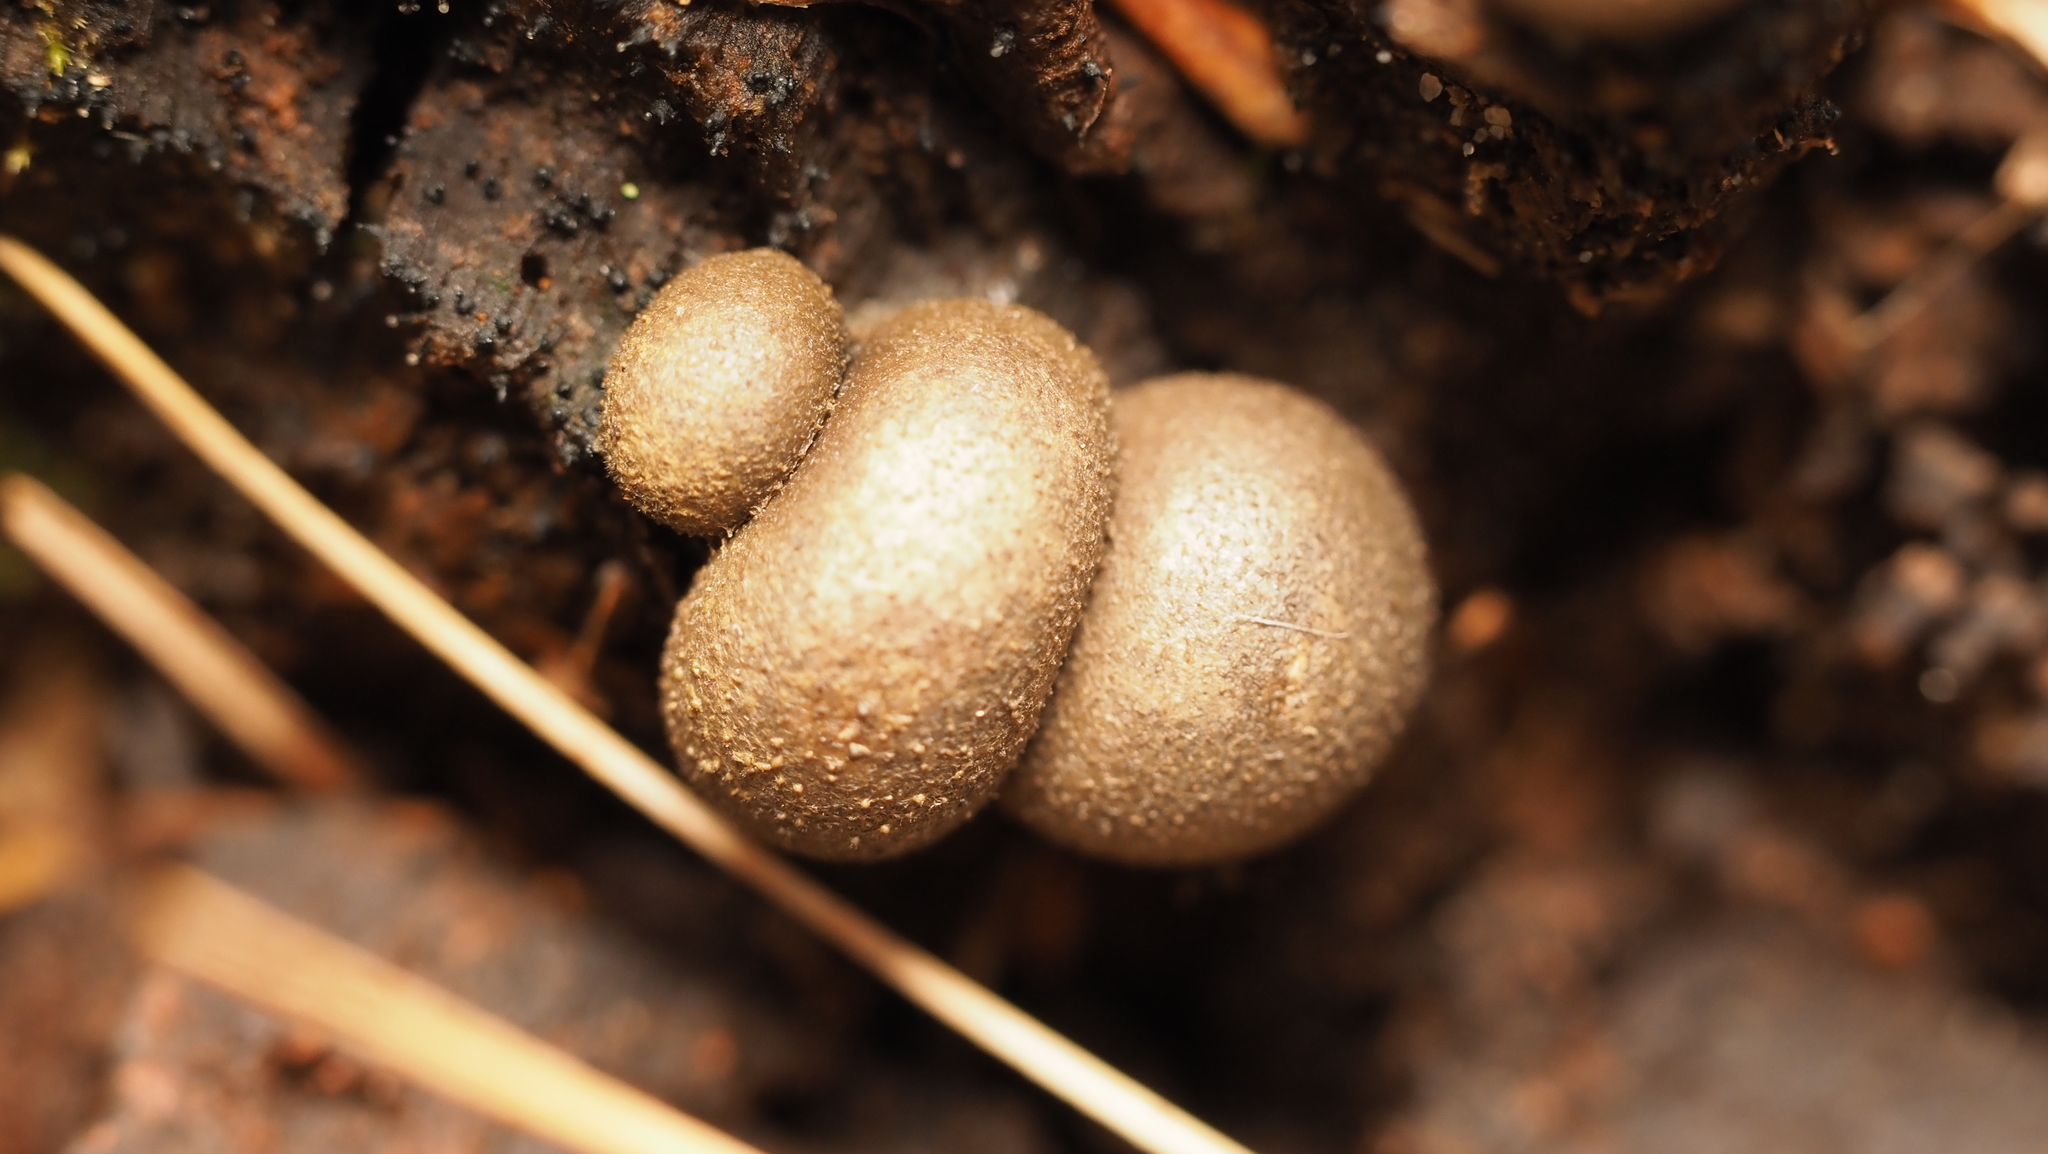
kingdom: Protozoa
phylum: Mycetozoa
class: Myxomycetes
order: Cribrariales
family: Tubiferaceae
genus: Lycogala
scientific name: Lycogala epidendrum
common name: Wolf's milk
